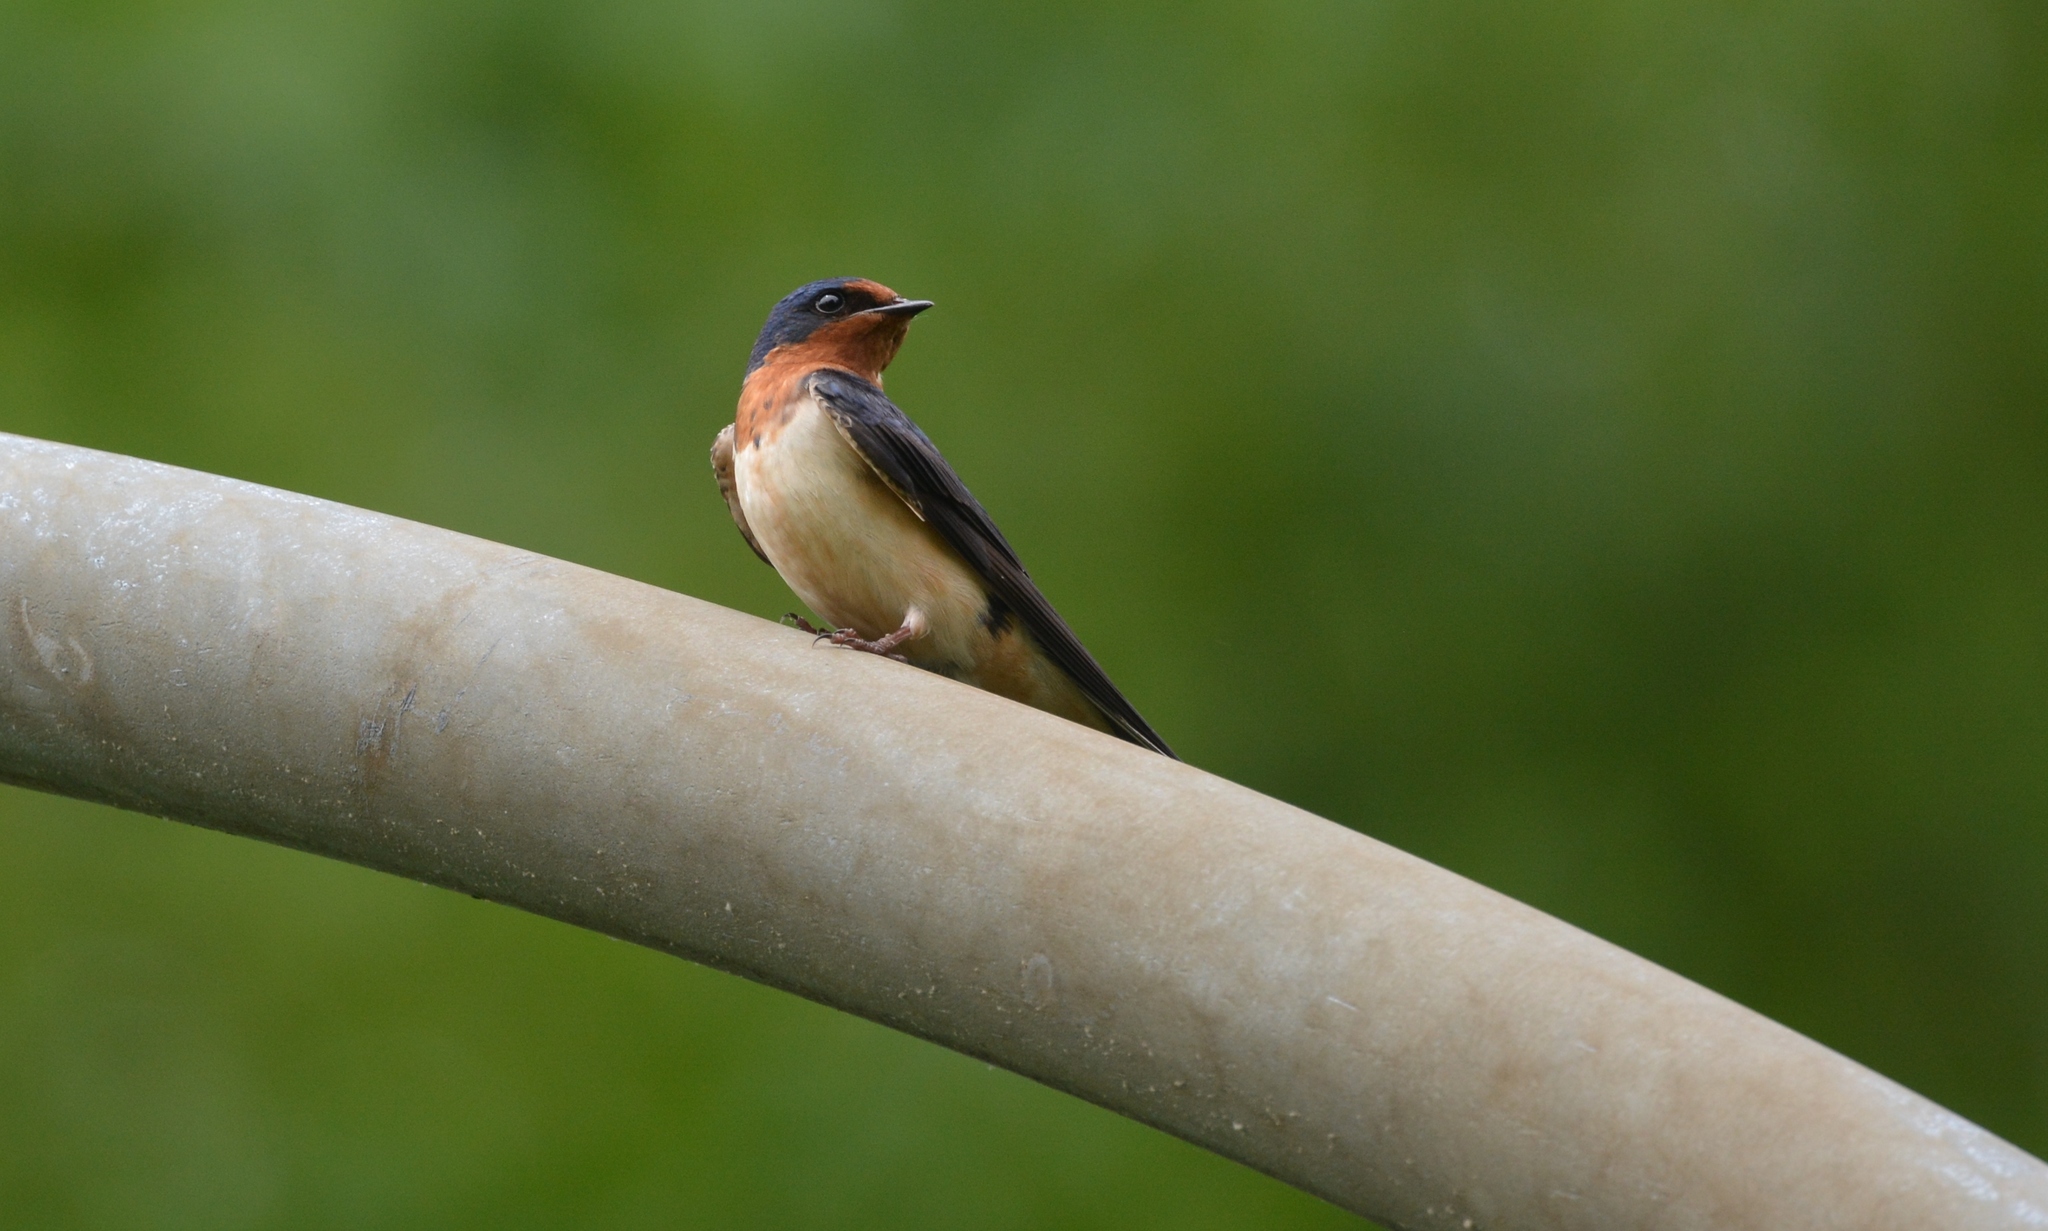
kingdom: Animalia
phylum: Chordata
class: Aves
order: Passeriformes
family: Hirundinidae
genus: Hirundo
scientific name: Hirundo rustica
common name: Barn swallow
